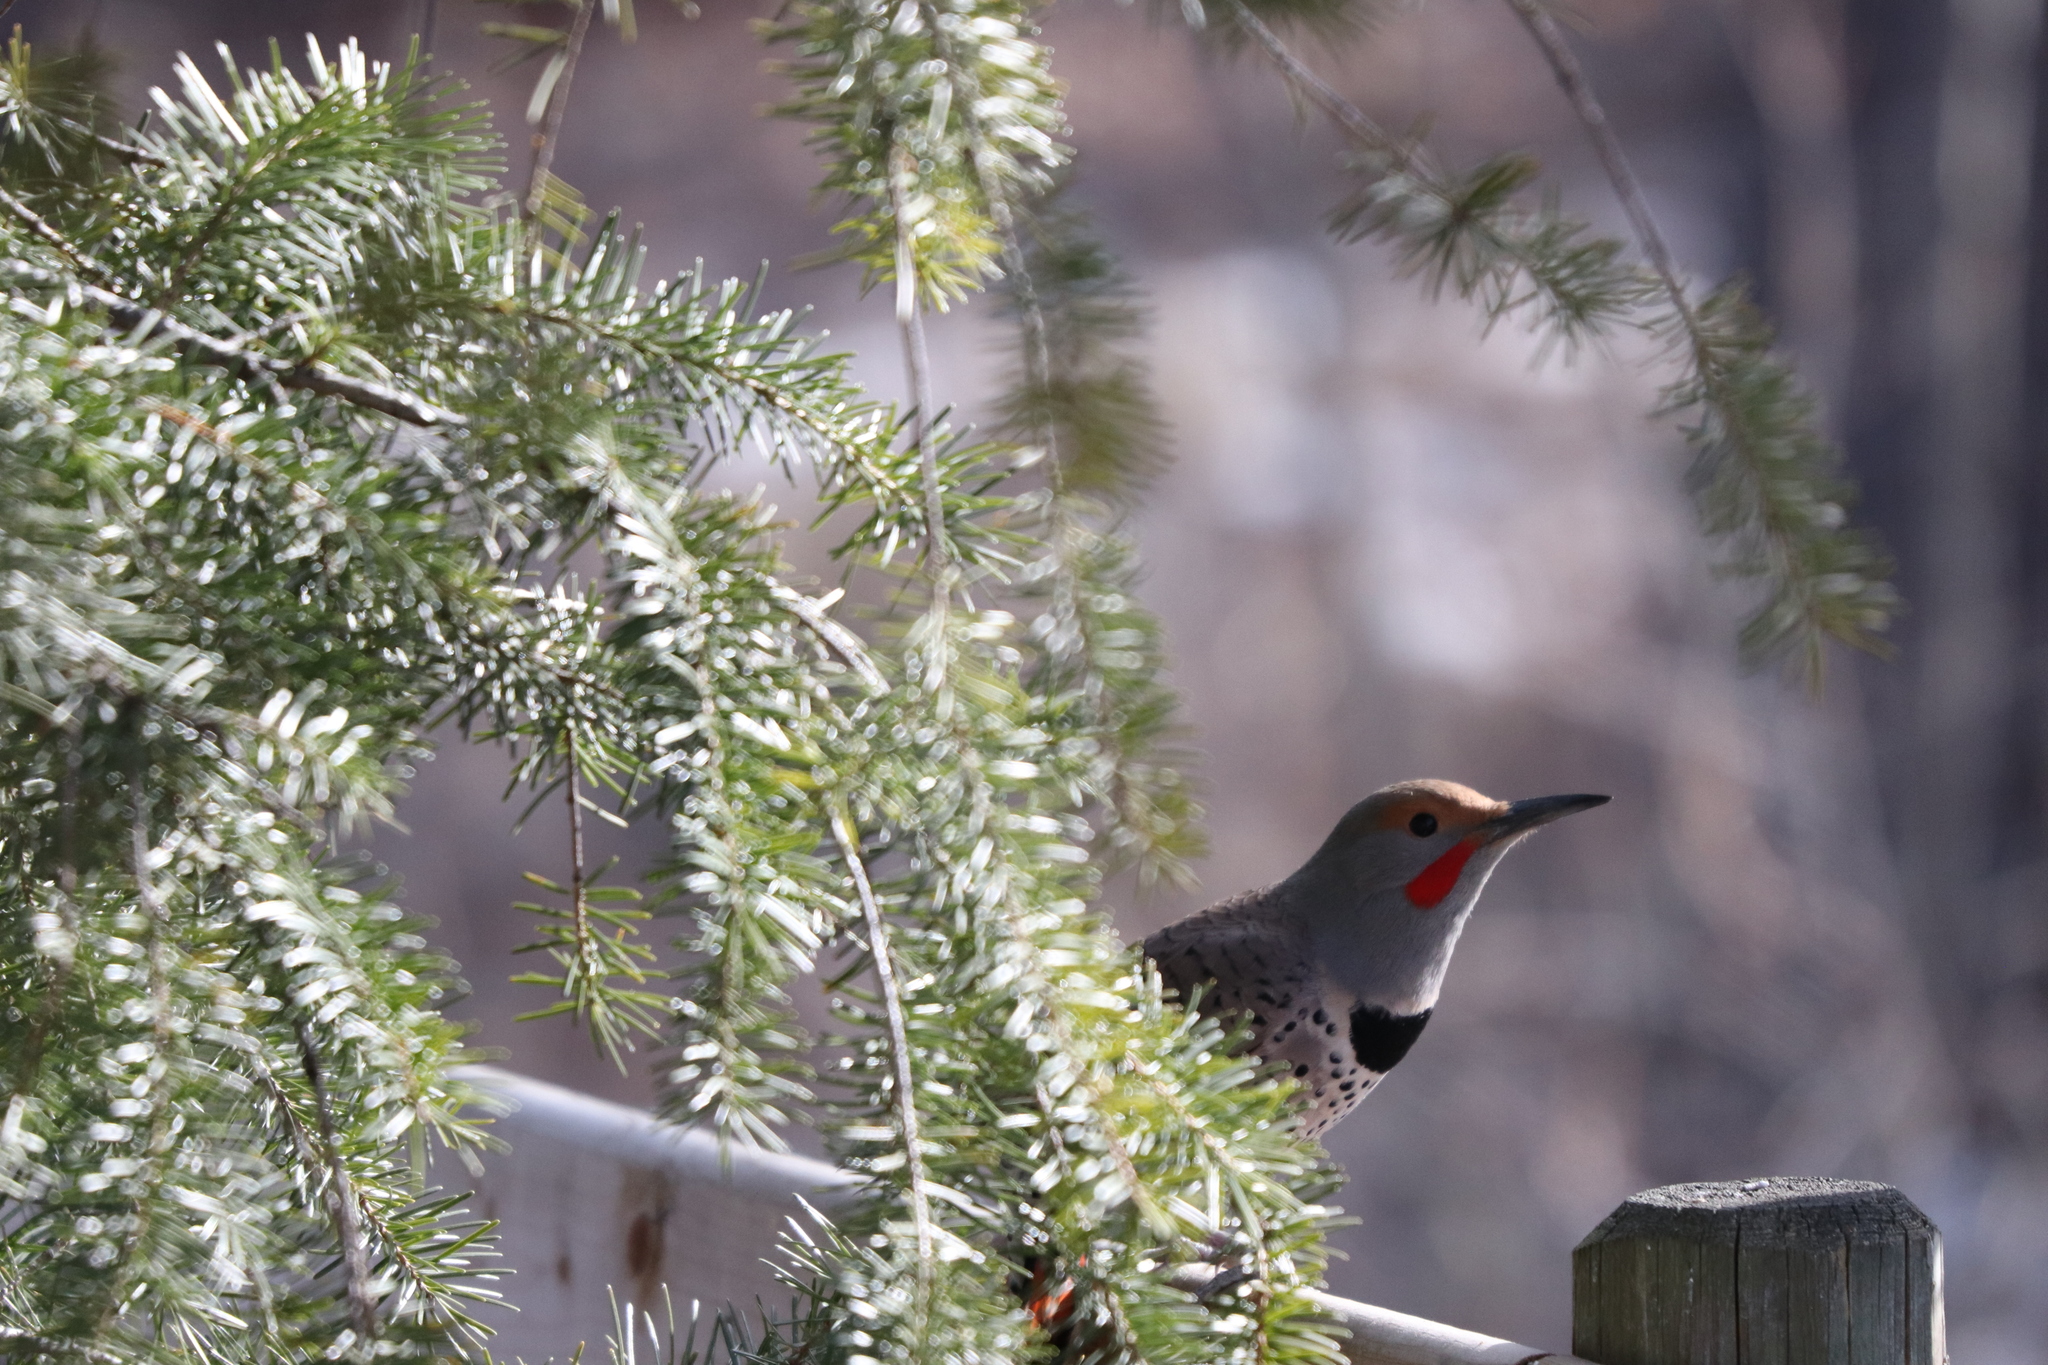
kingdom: Animalia
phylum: Chordata
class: Aves
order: Piciformes
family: Picidae
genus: Colaptes
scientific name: Colaptes auratus
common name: Northern flicker
